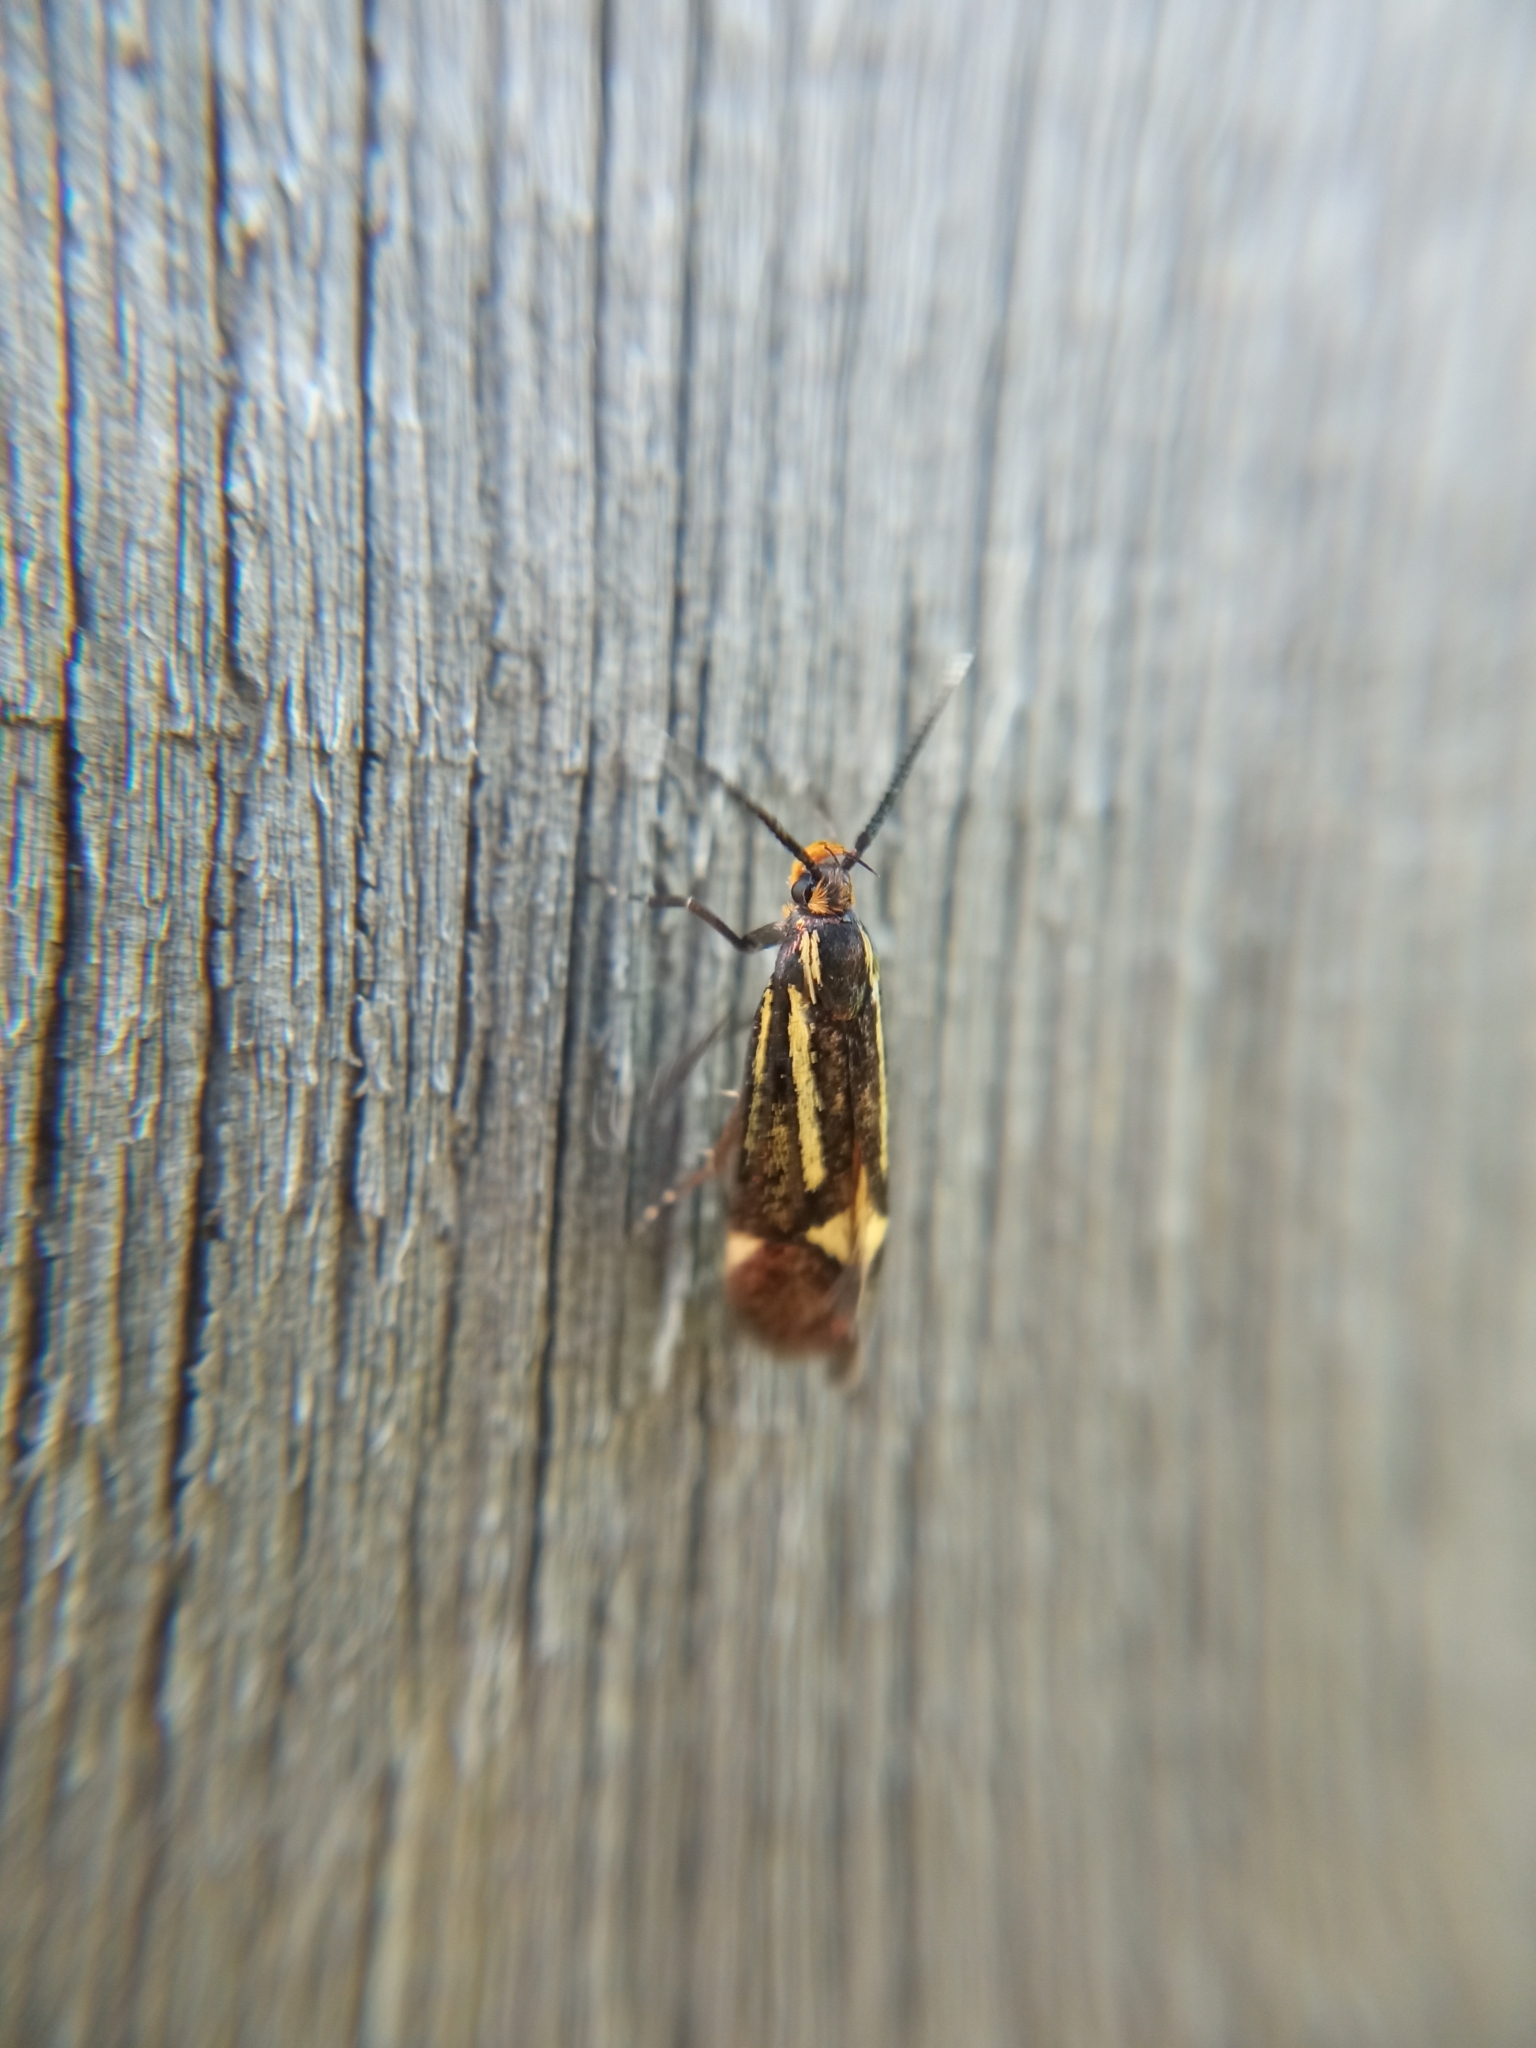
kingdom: Animalia
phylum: Arthropoda
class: Insecta
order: Lepidoptera
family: Oecophoridae
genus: Dafa
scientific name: Dafa Esperia sulphurella
